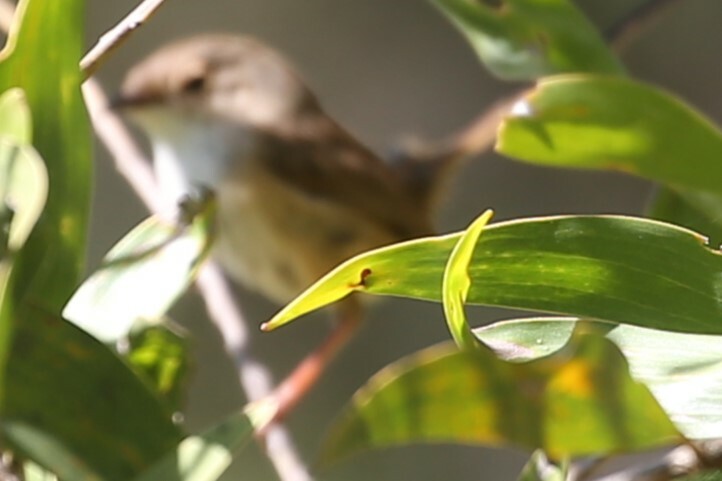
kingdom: Animalia
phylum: Chordata
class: Aves
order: Passeriformes
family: Maluridae
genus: Malurus
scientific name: Malurus melanocephalus
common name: Red-backed fairywren
